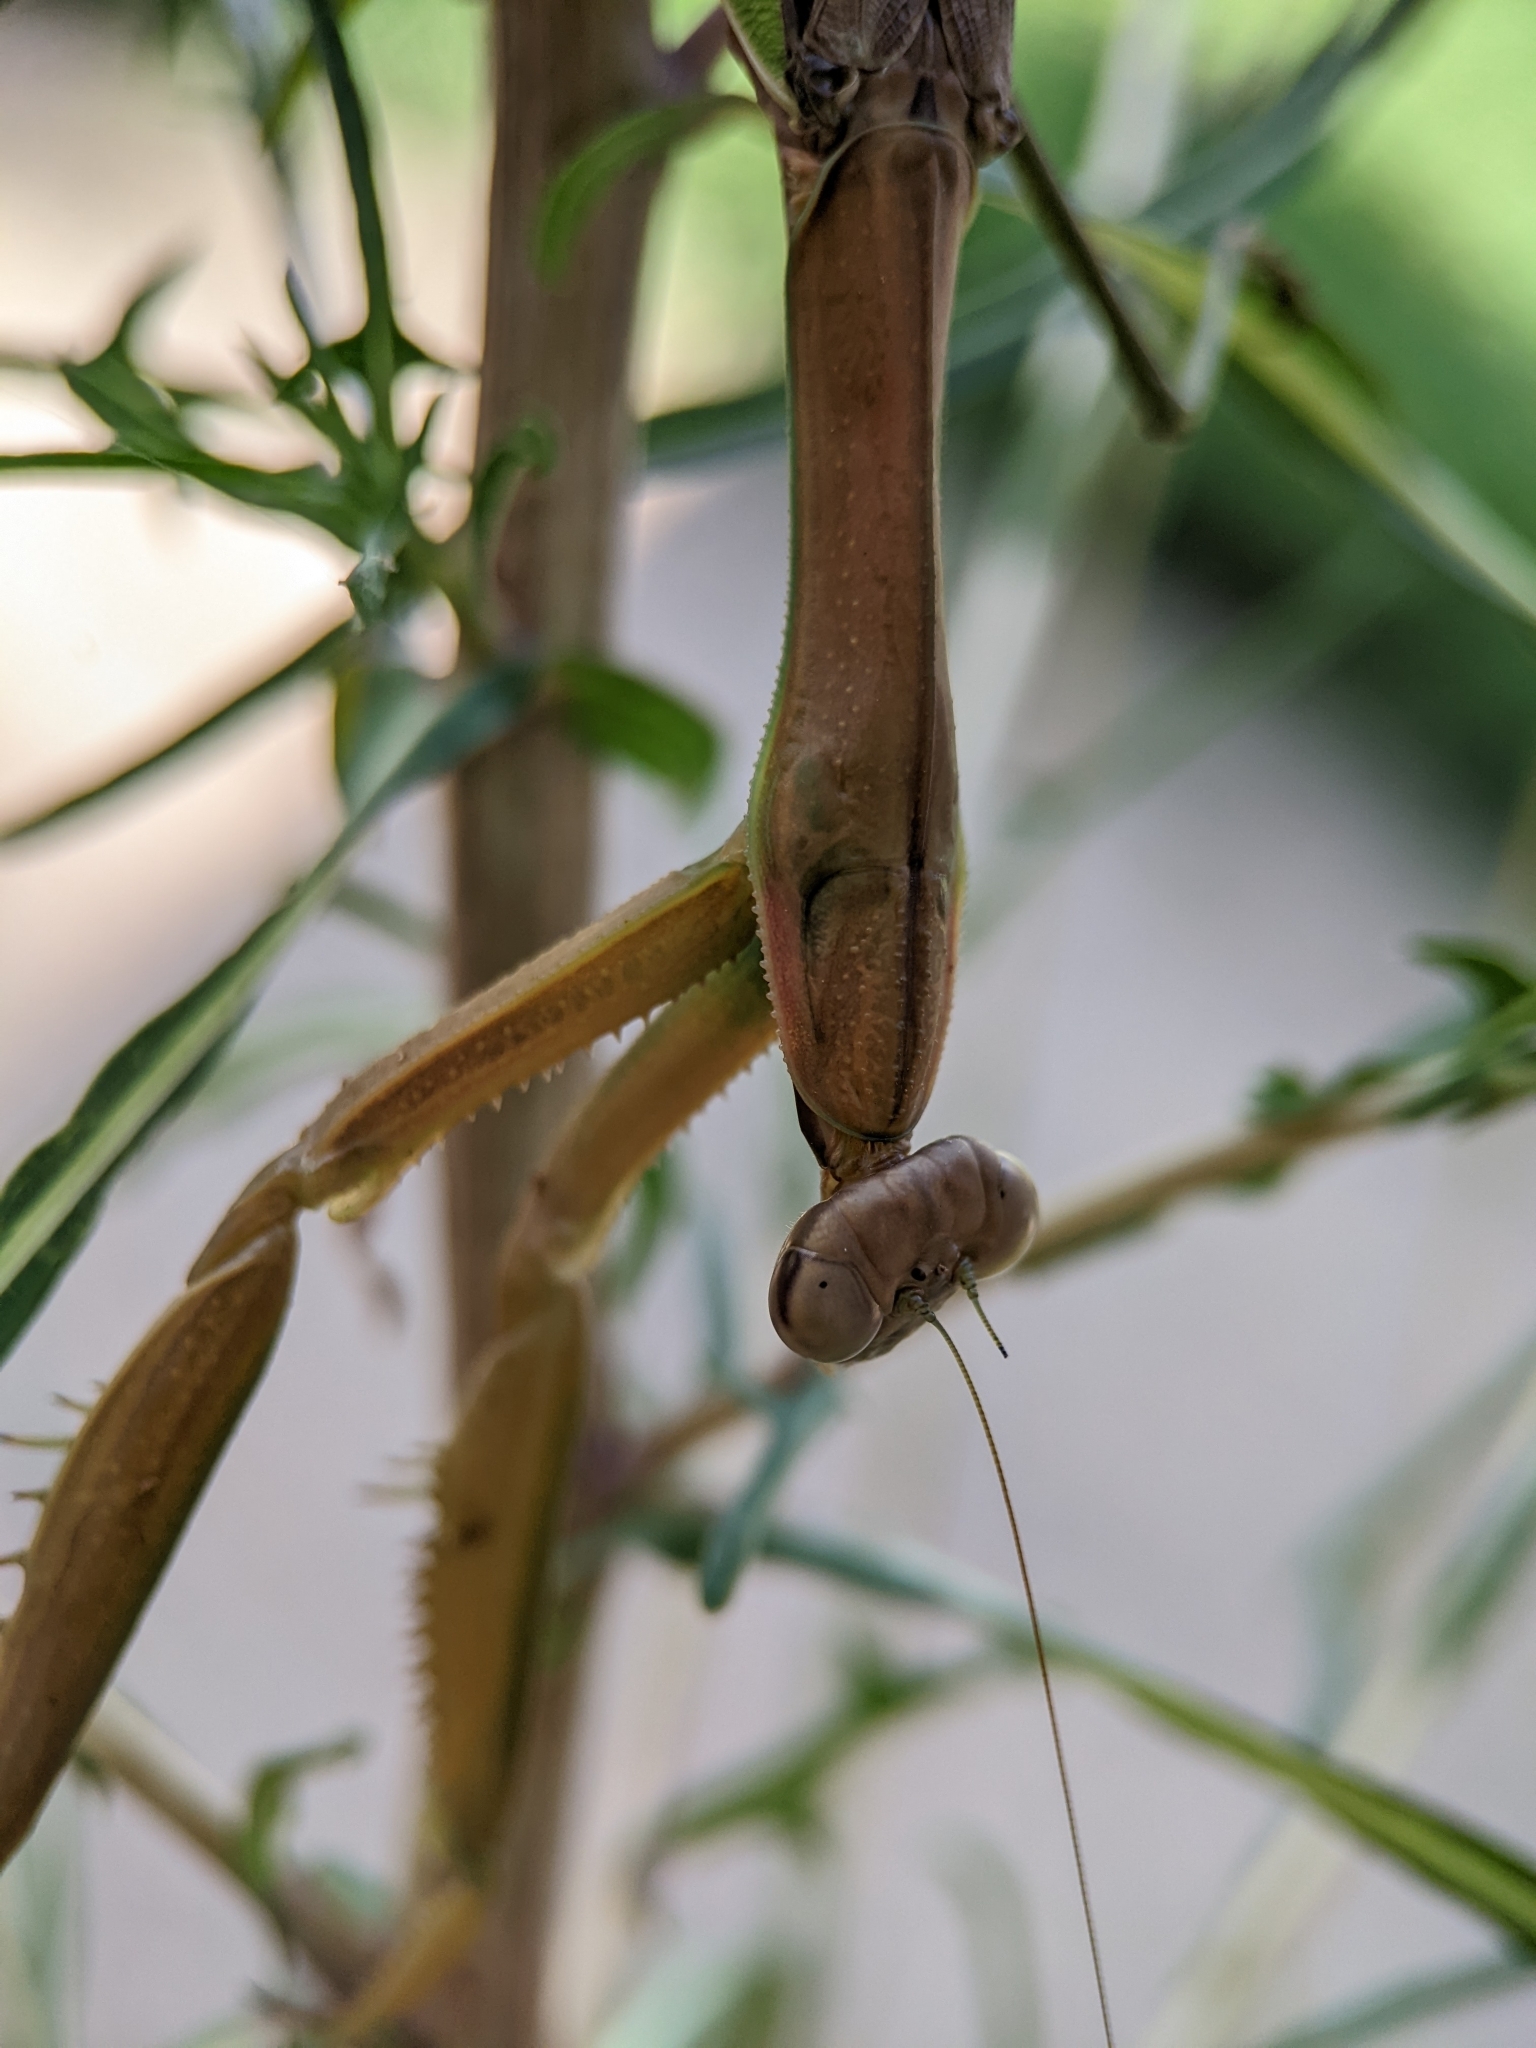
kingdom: Animalia
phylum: Arthropoda
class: Insecta
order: Mantodea
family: Mantidae
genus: Tenodera
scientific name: Tenodera sinensis
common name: Chinese mantis
